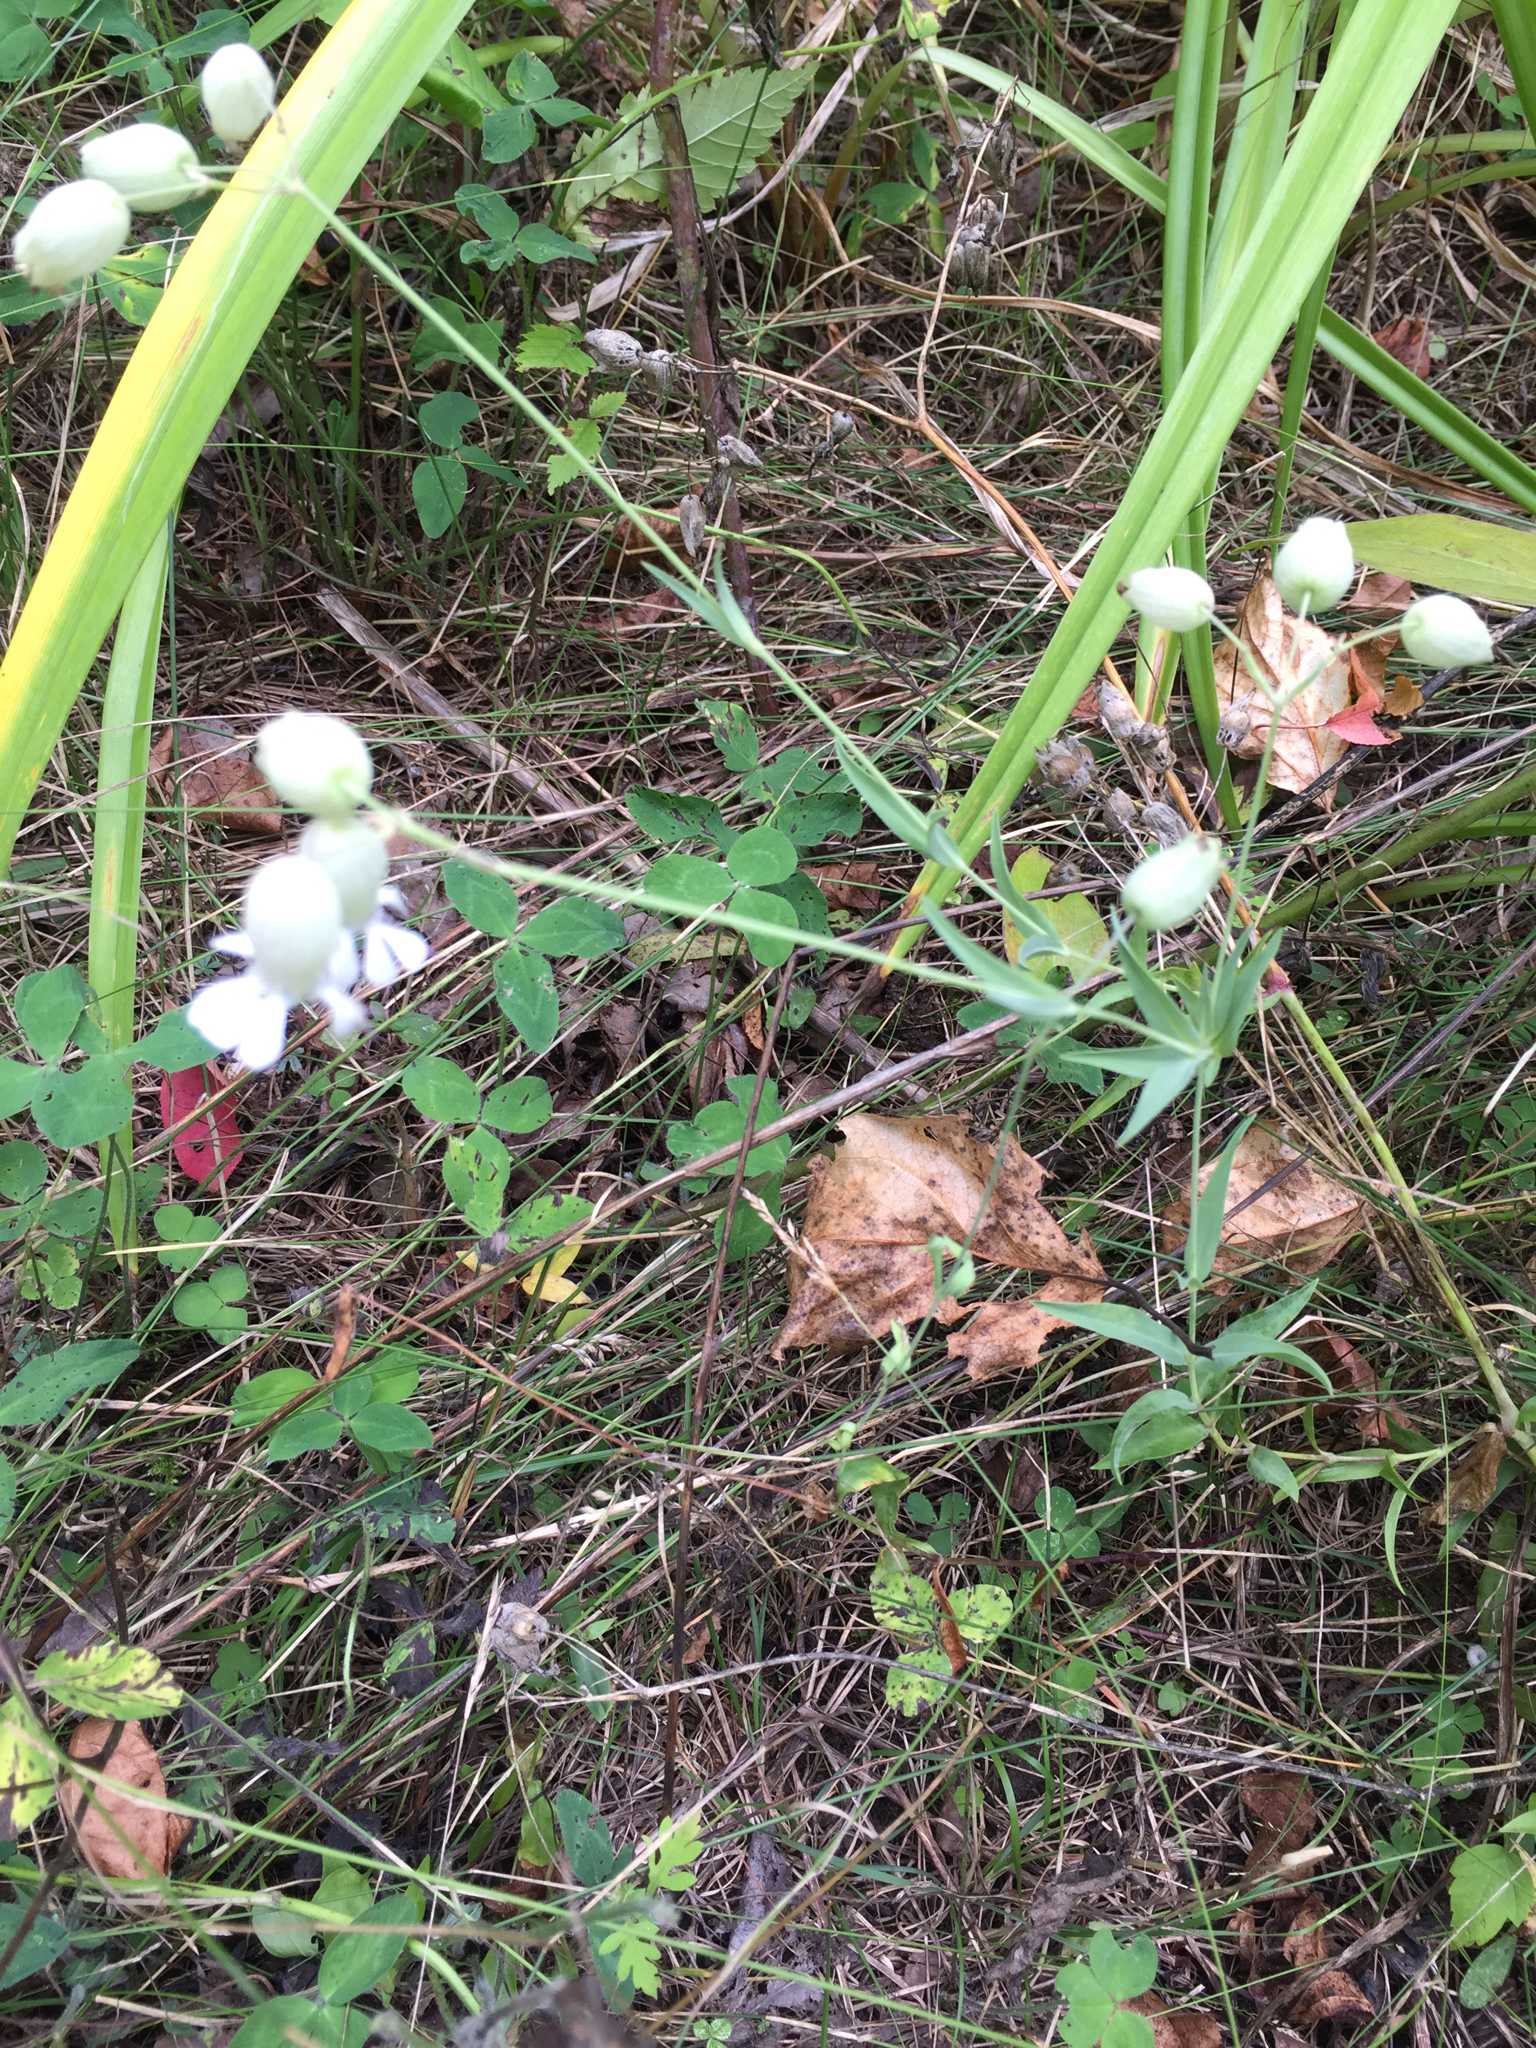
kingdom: Plantae
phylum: Tracheophyta
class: Magnoliopsida
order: Caryophyllales
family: Caryophyllaceae
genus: Silene
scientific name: Silene vulgaris
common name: Bladder campion
